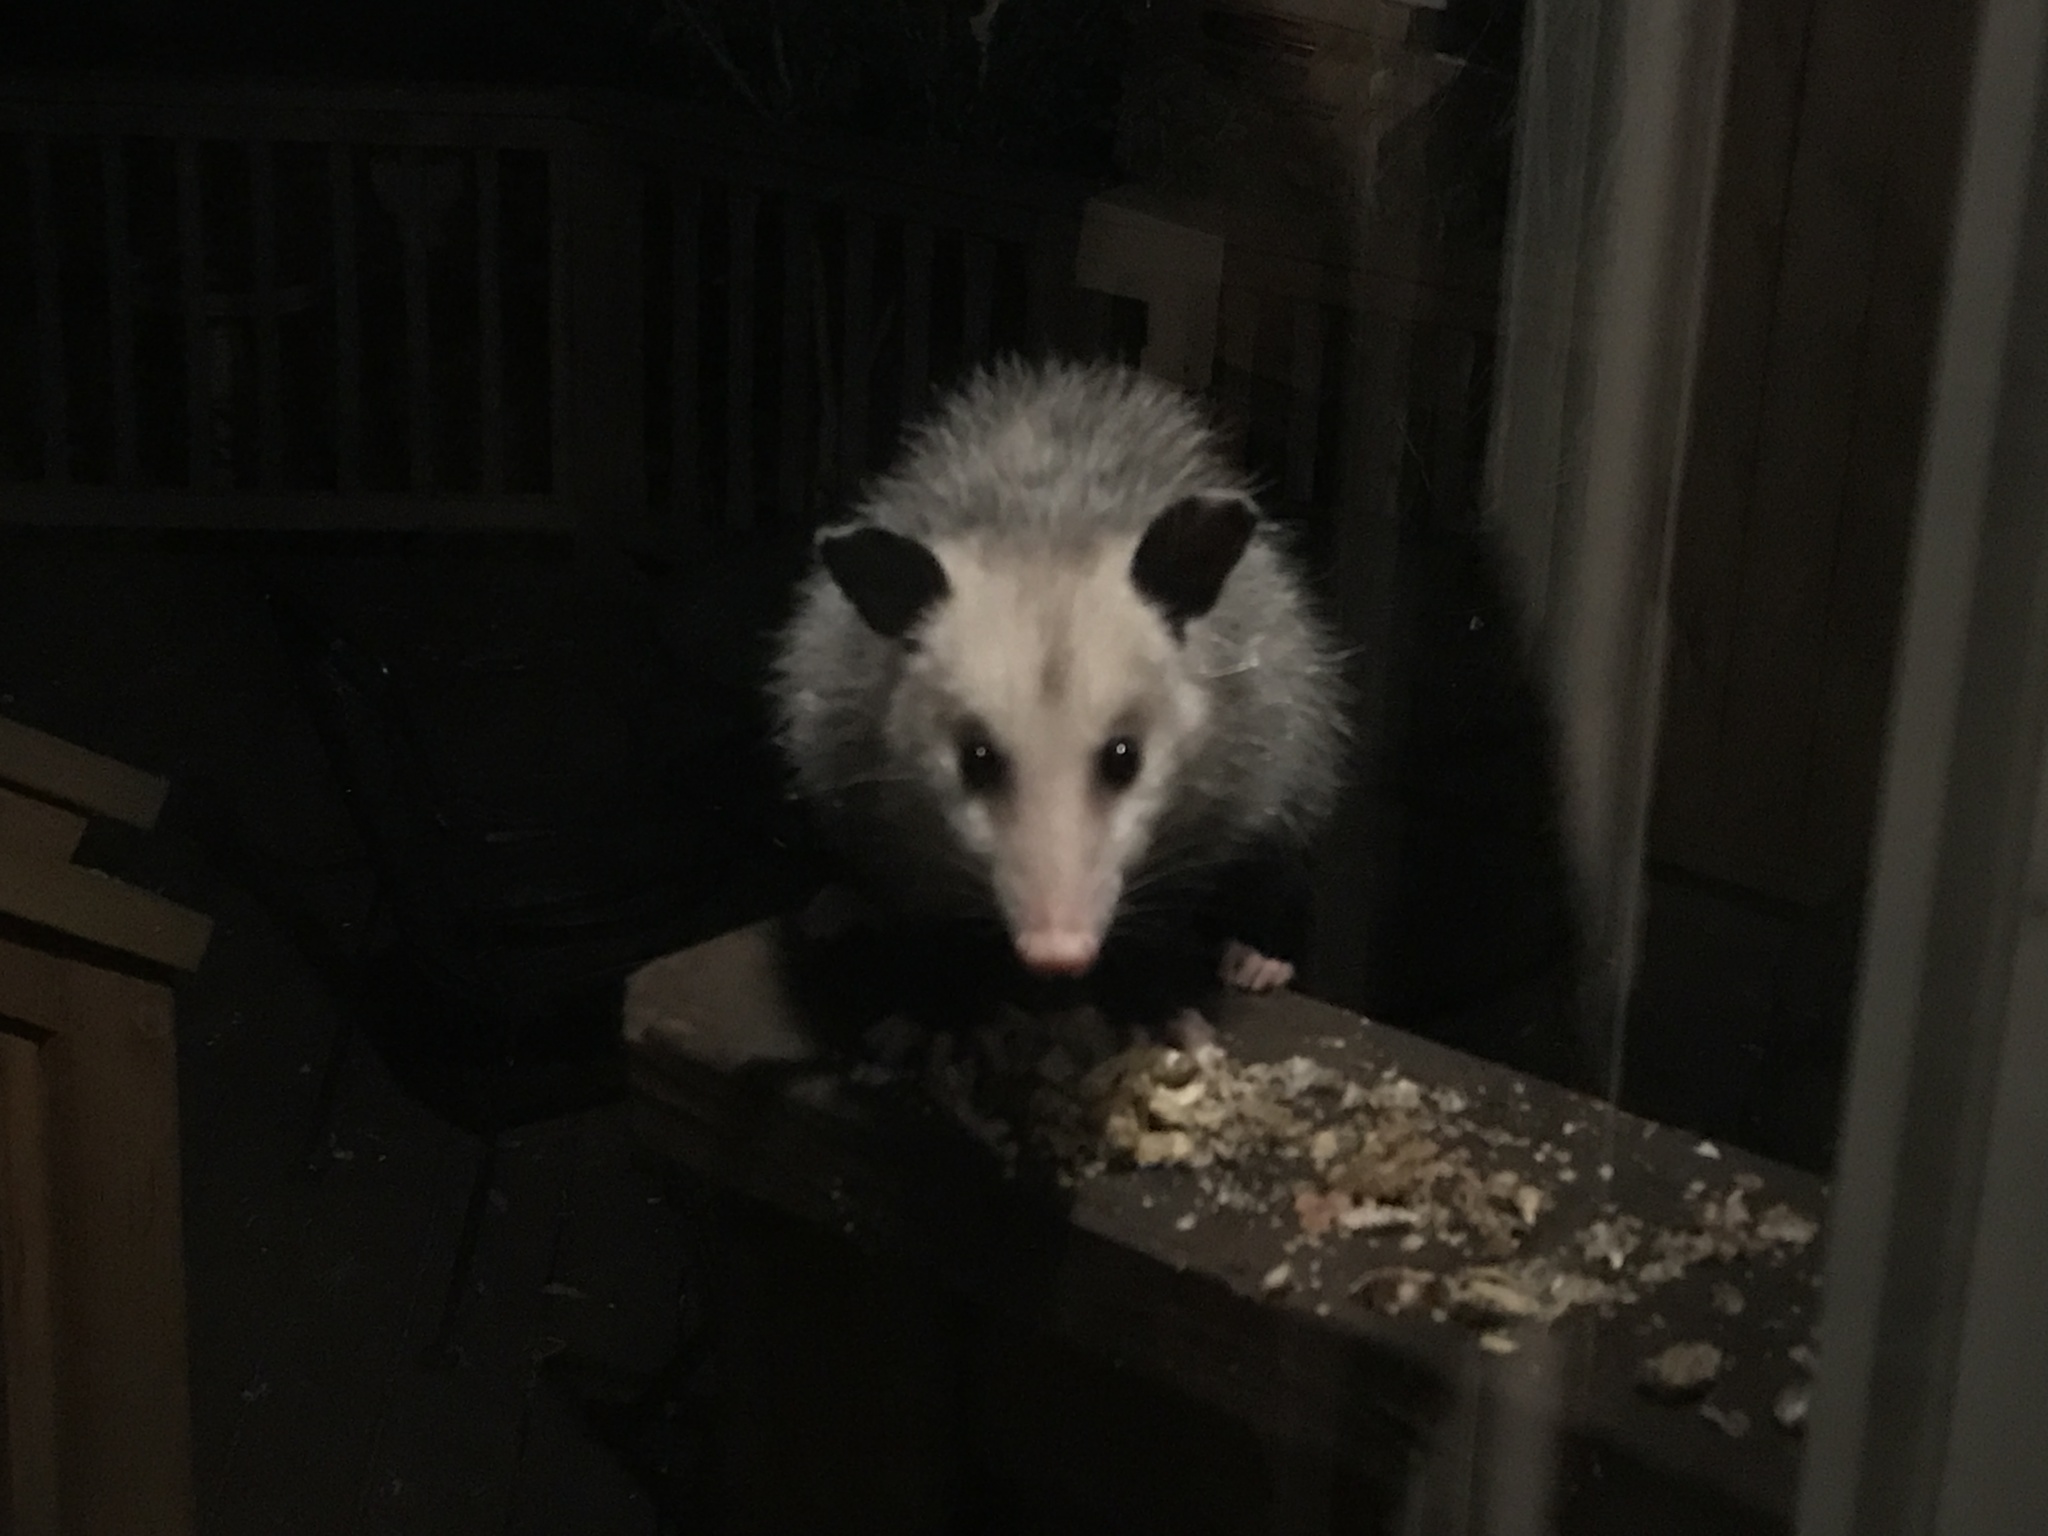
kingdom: Animalia
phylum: Chordata
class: Mammalia
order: Didelphimorphia
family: Didelphidae
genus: Didelphis
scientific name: Didelphis virginiana
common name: Virginia opossum
